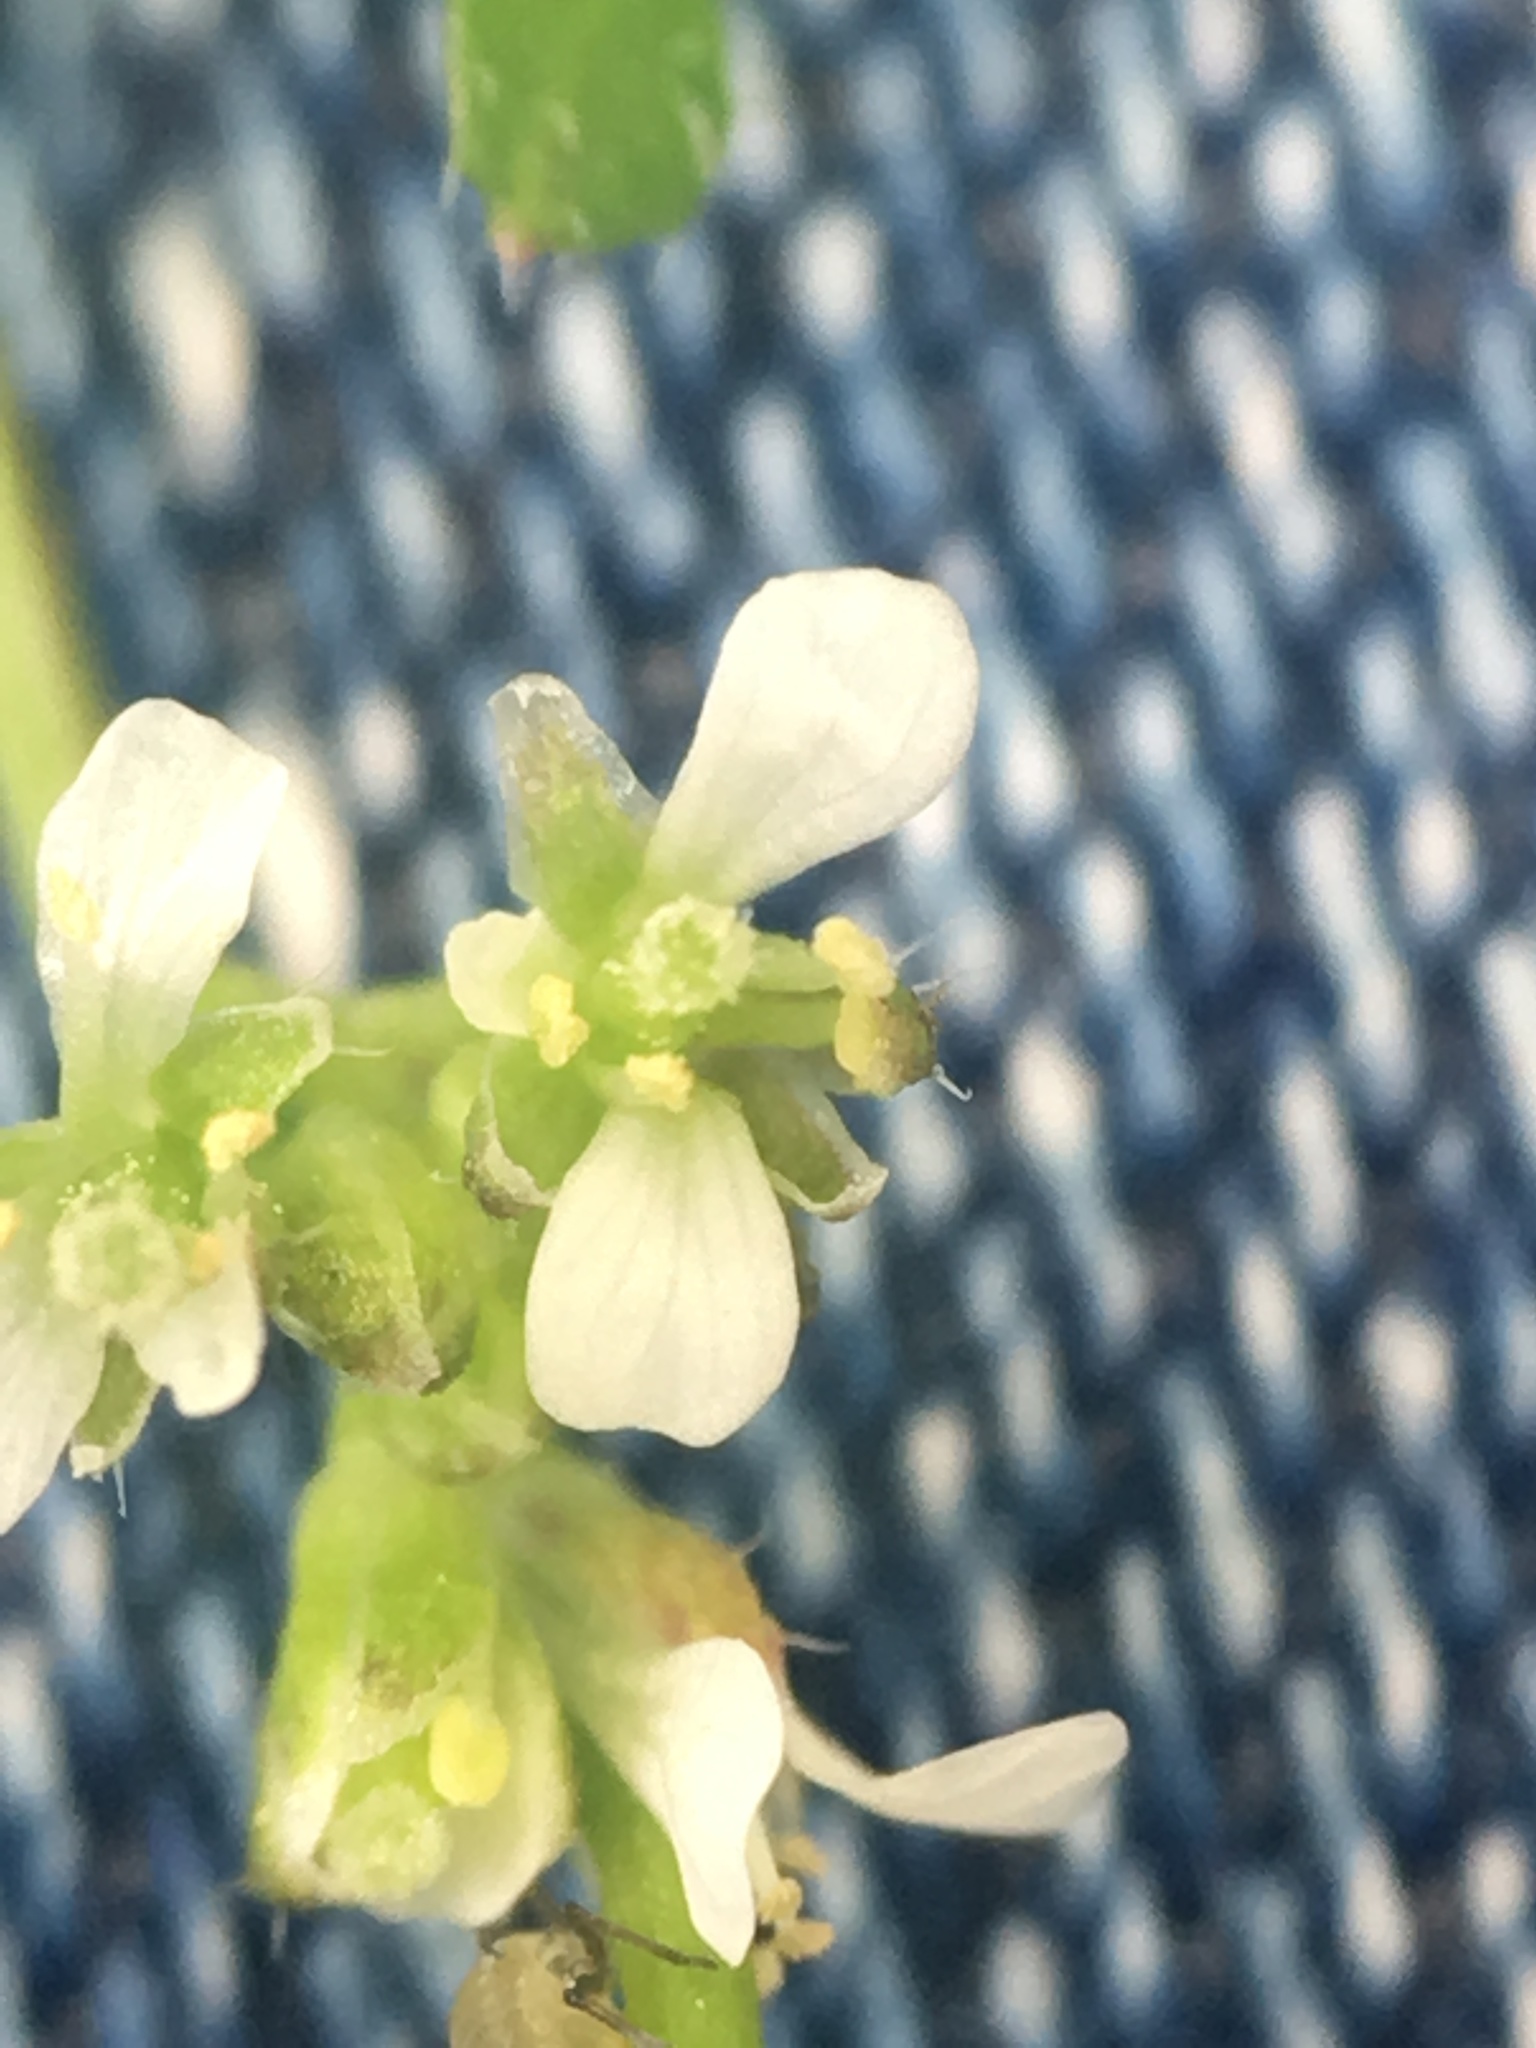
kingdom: Plantae
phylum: Tracheophyta
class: Magnoliopsida
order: Brassicales
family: Brassicaceae
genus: Cardamine
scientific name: Cardamine hirsuta
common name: Hairy bittercress
